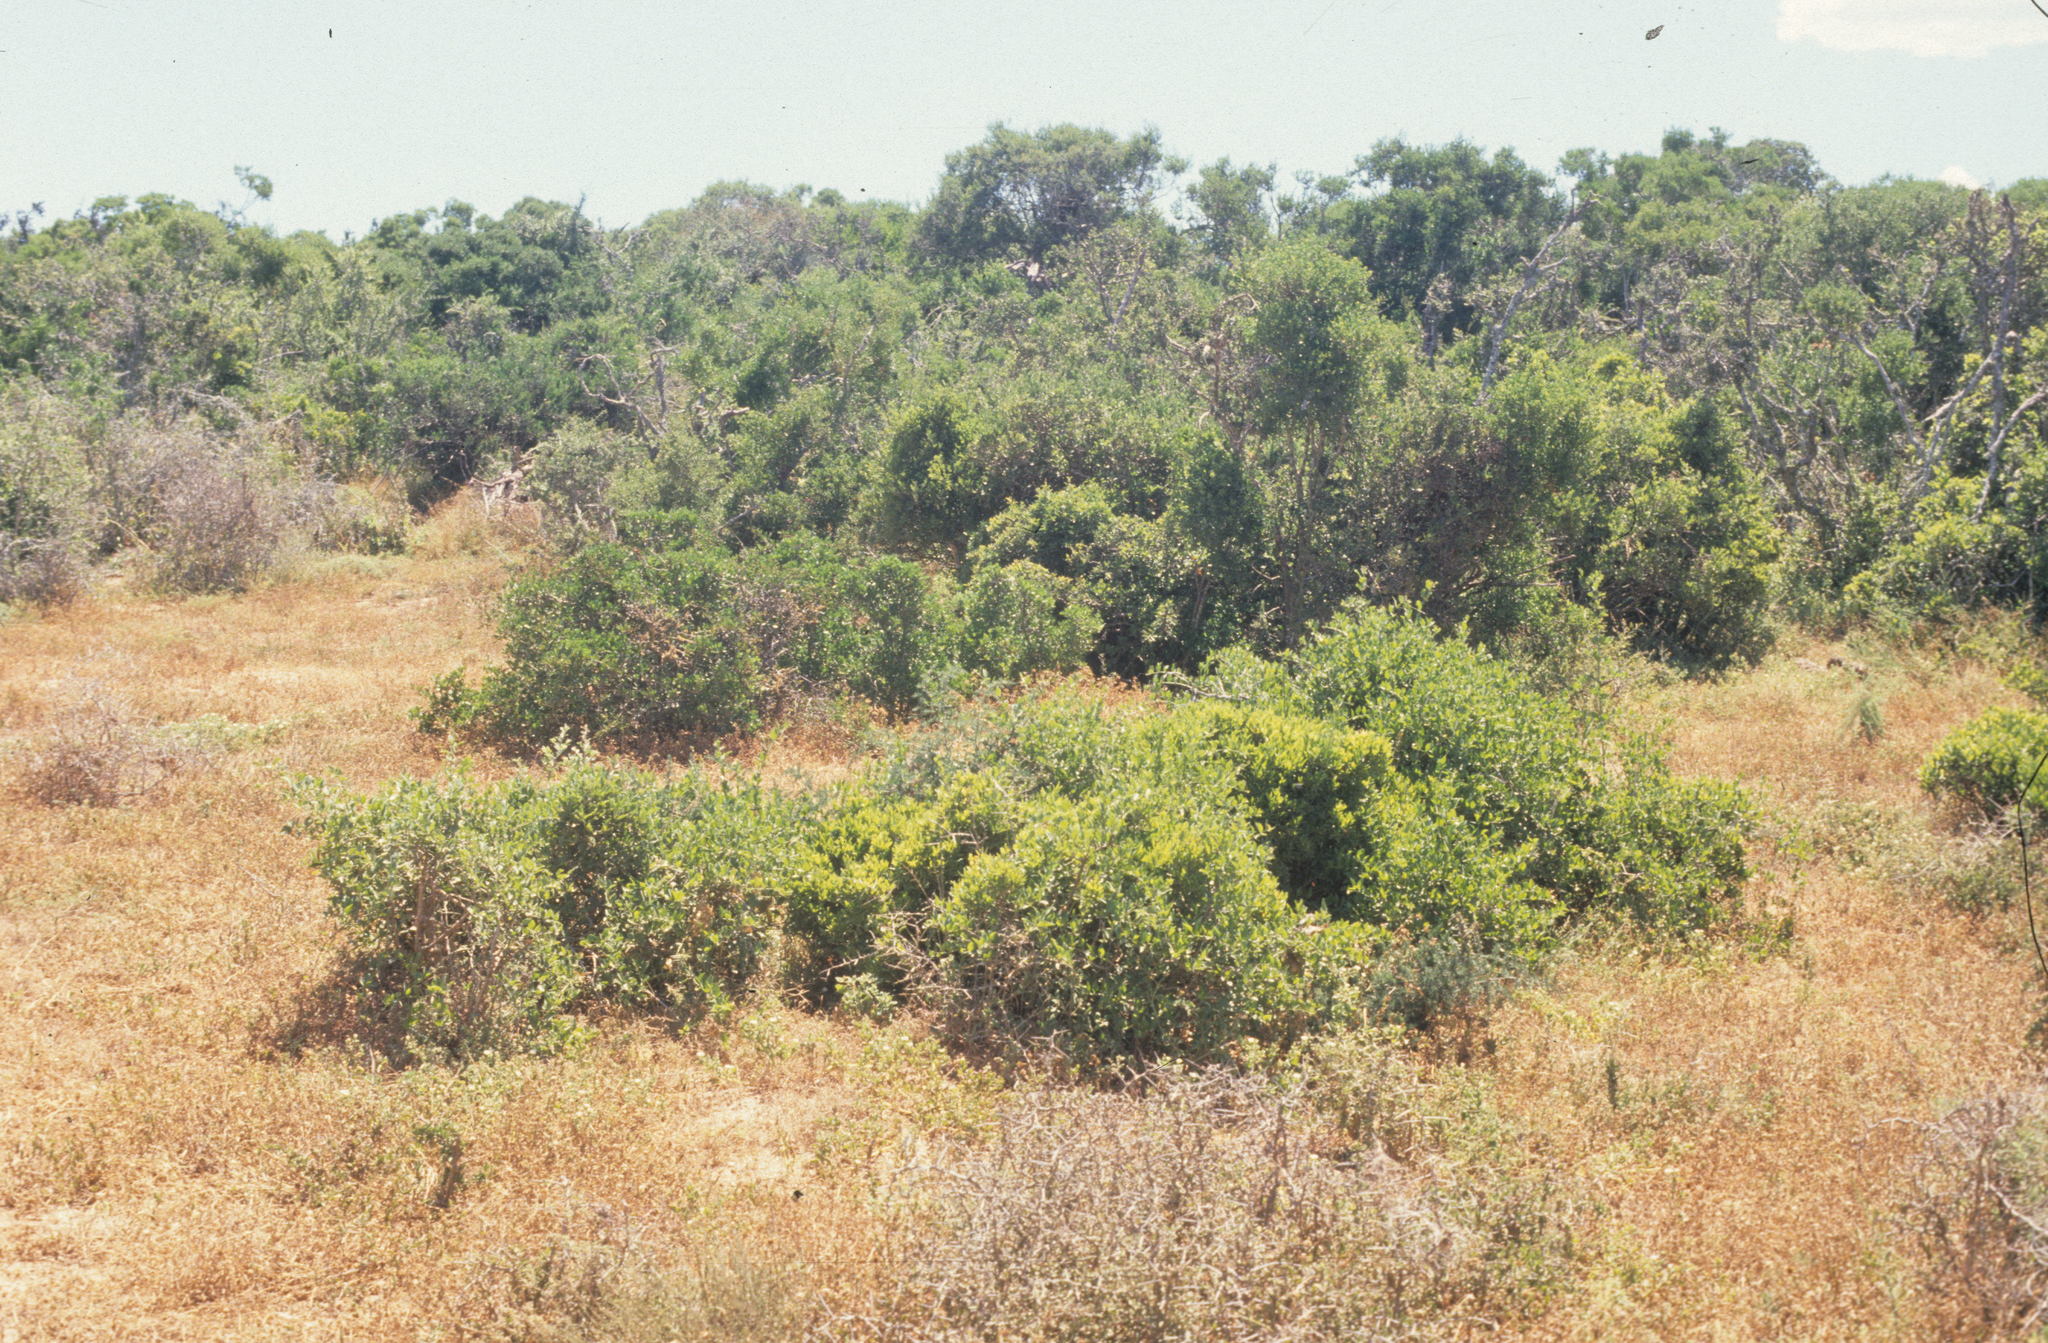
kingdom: Plantae
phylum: Tracheophyta
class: Magnoliopsida
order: Brassicales
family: Salvadoraceae
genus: Azima
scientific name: Azima tetracantha
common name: Needle bush
